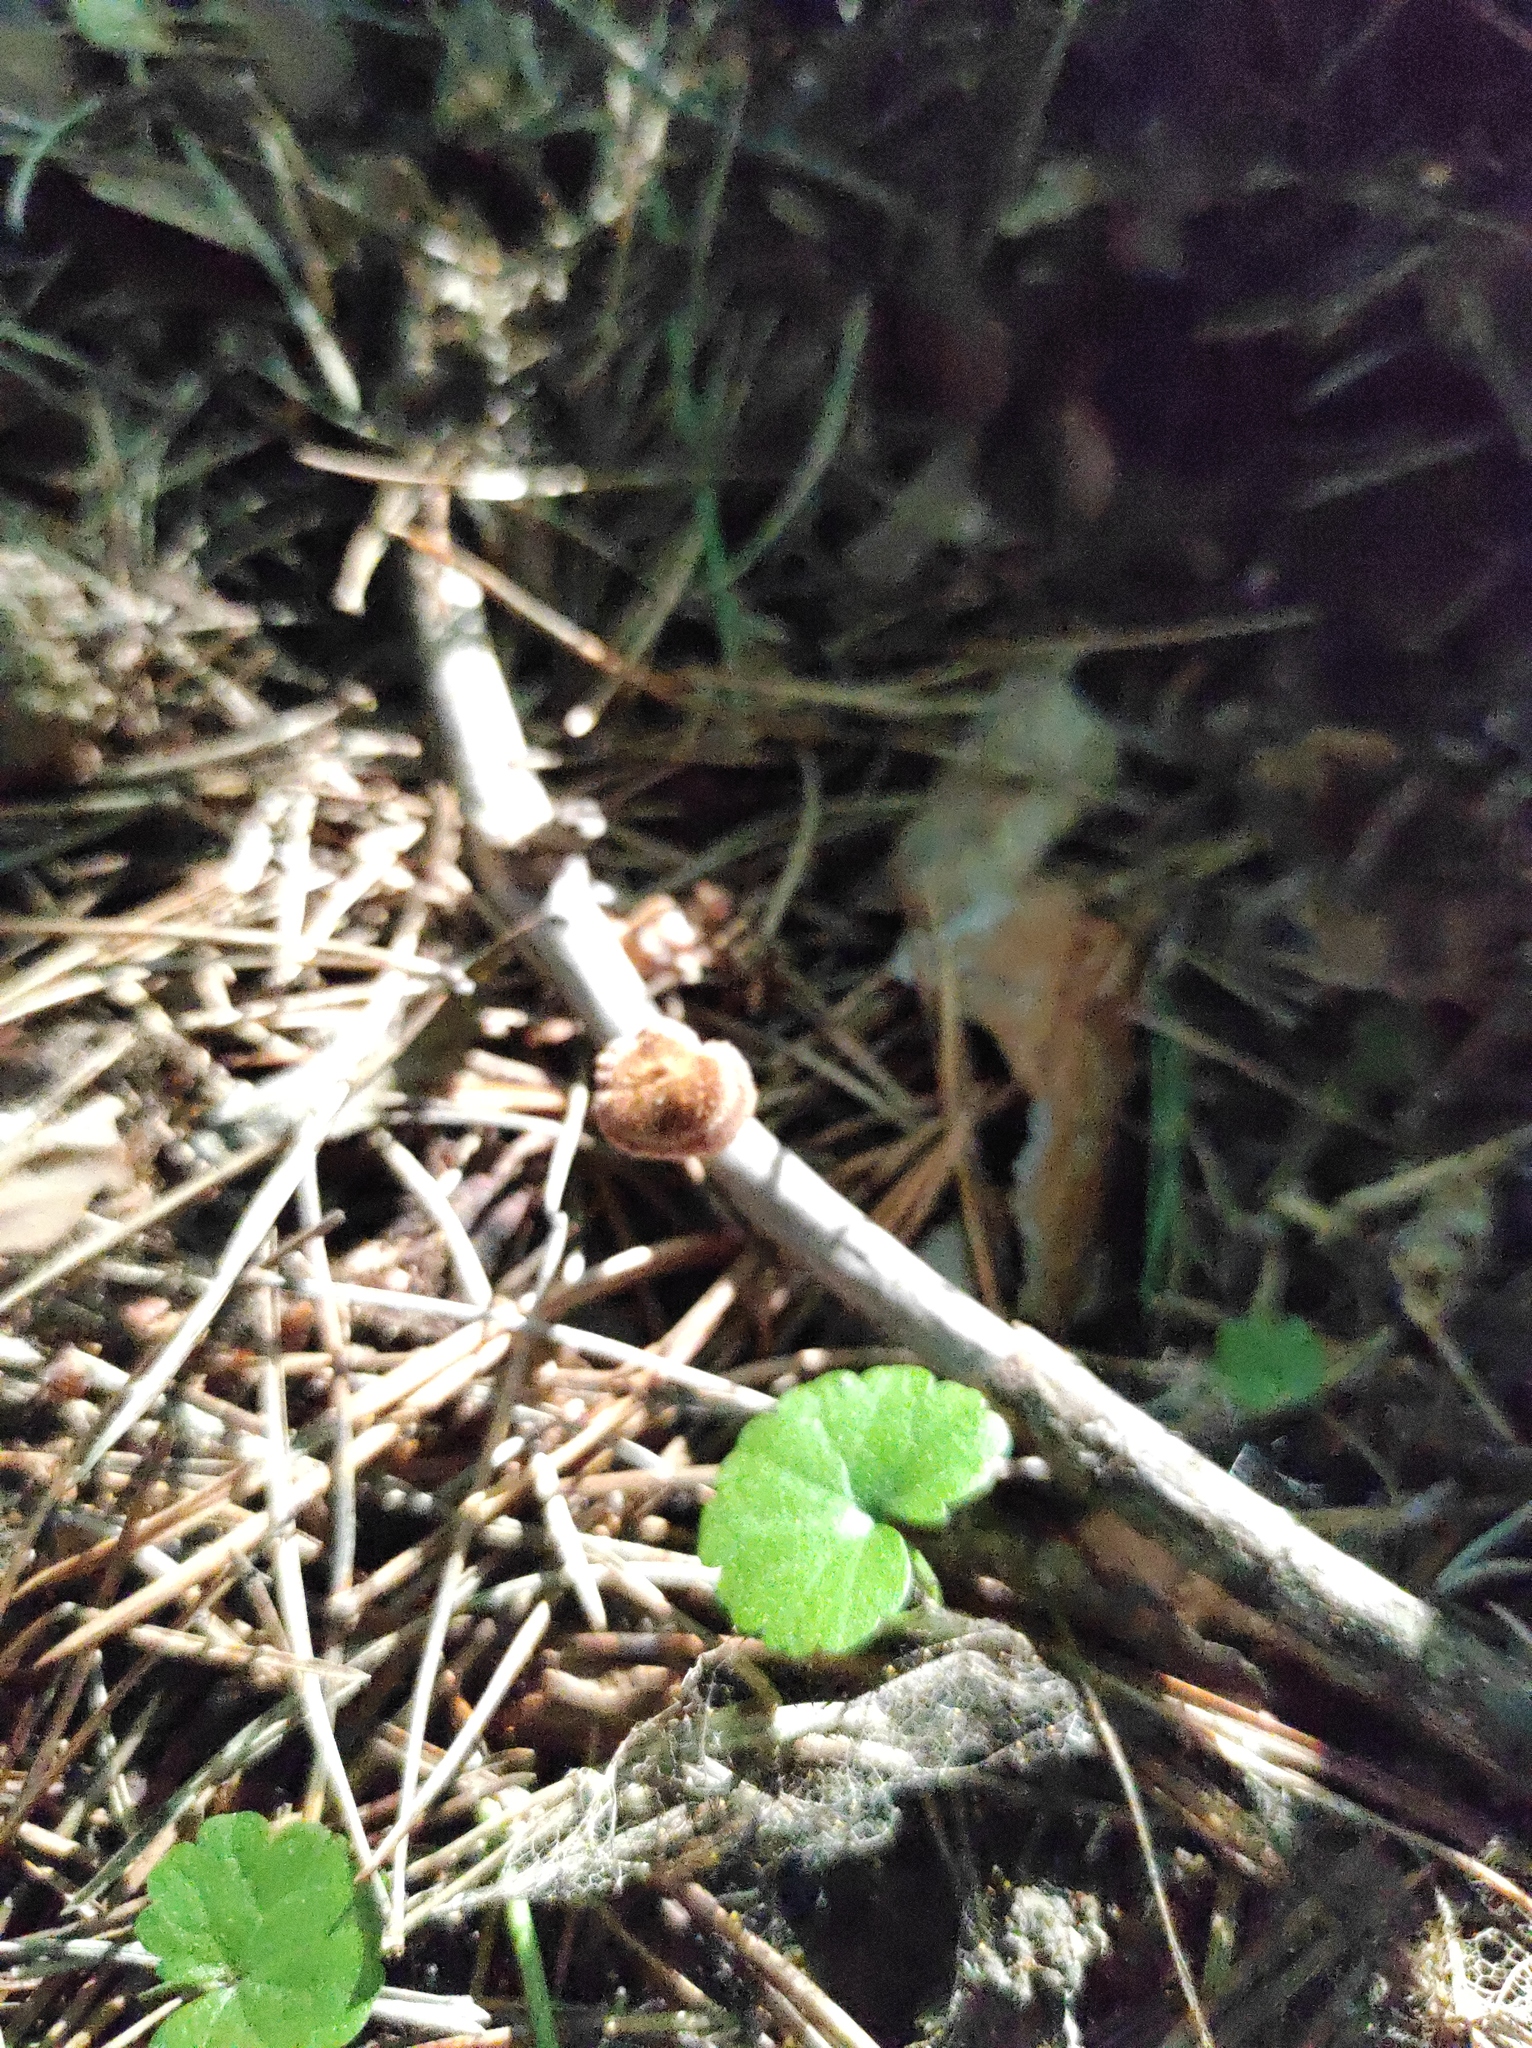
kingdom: Fungi
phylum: Basidiomycota
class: Agaricomycetes
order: Russulales
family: Auriscalpiaceae
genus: Auriscalpium
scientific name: Auriscalpium vulgare
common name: Earpick fungus
